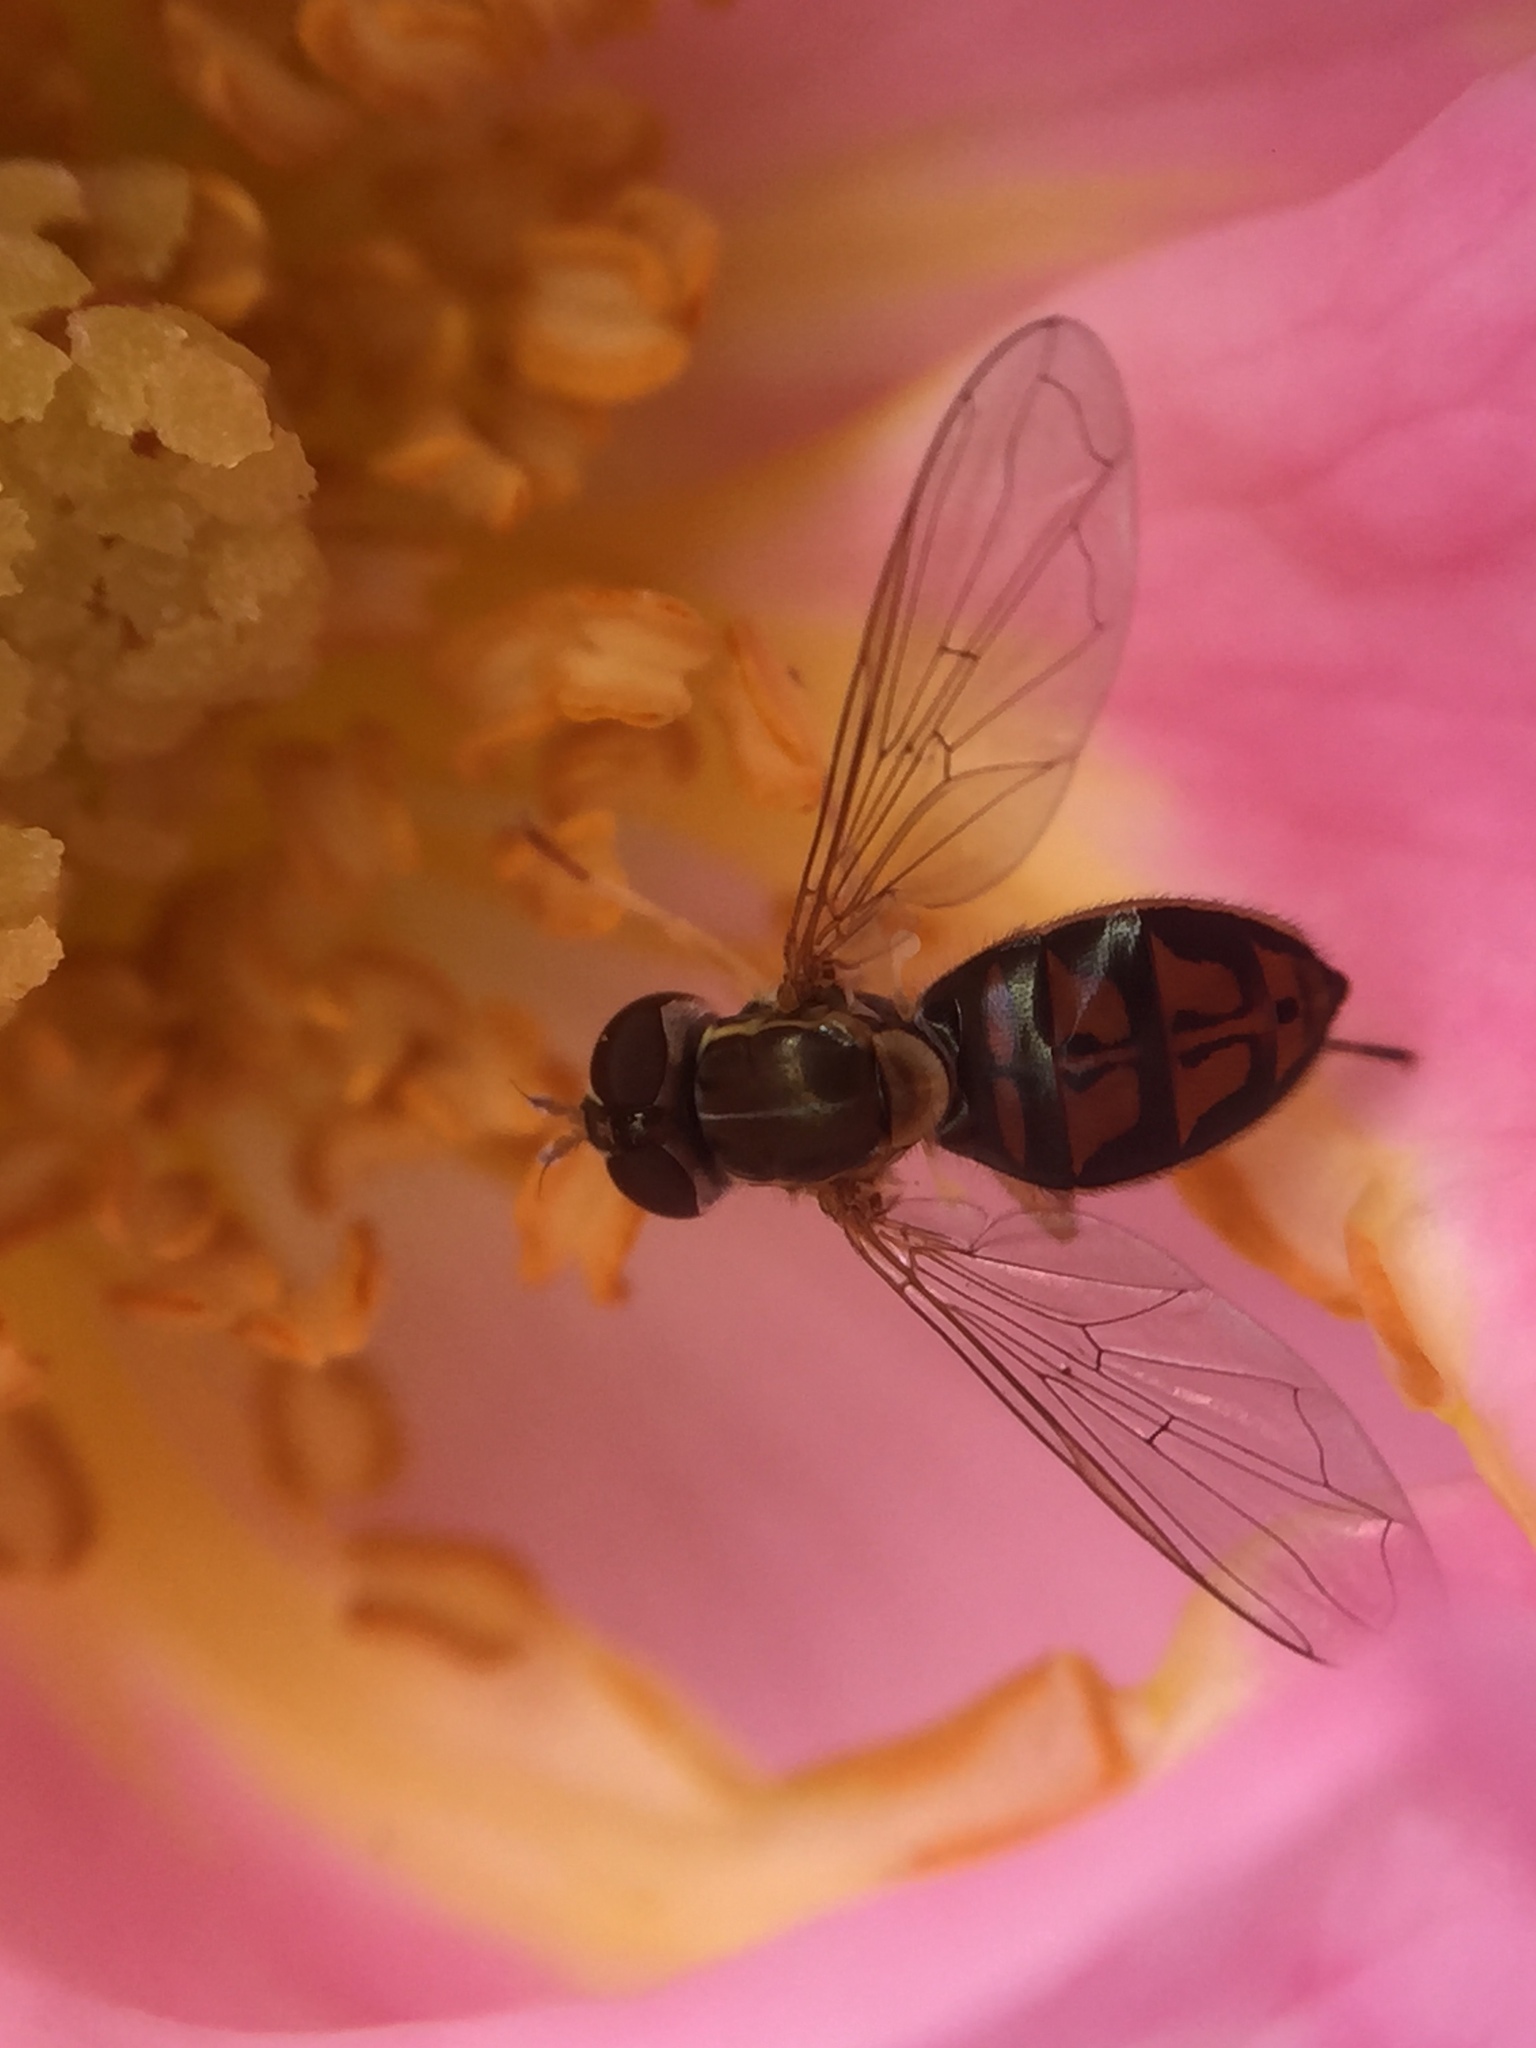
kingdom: Animalia
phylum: Arthropoda
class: Insecta
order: Diptera
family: Syrphidae
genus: Toxomerus
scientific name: Toxomerus marginatus
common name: Syrphid fly
